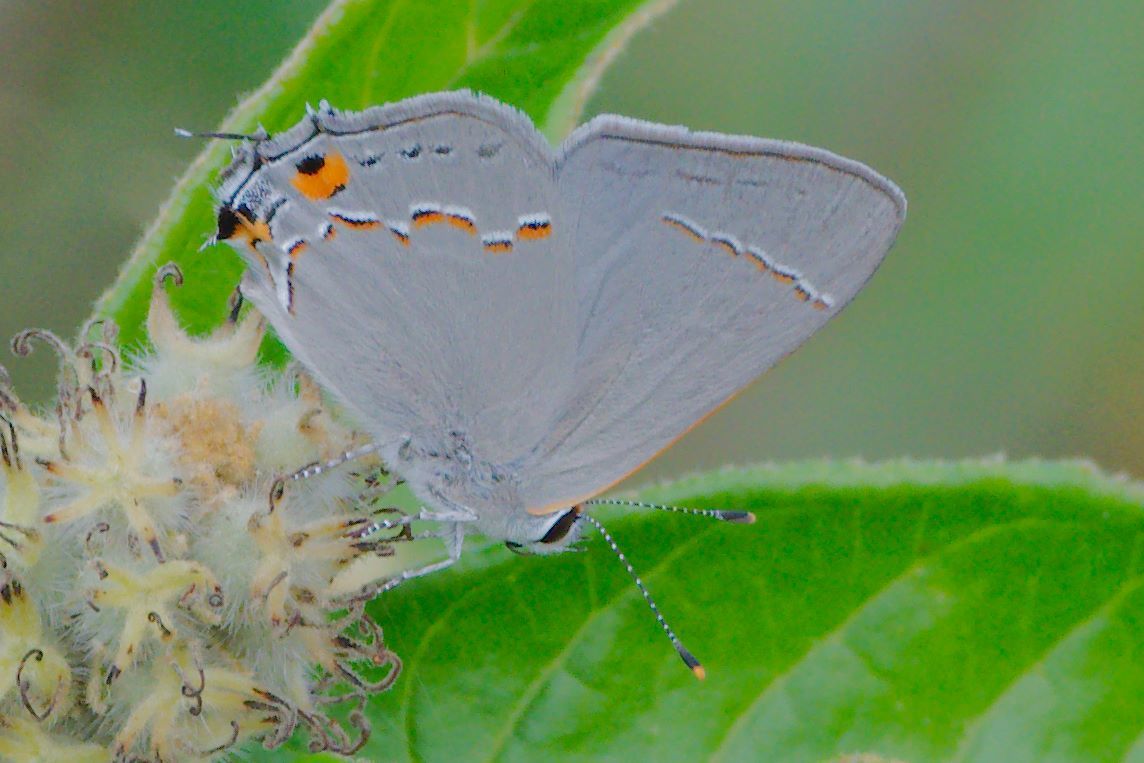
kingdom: Animalia
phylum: Arthropoda
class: Insecta
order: Lepidoptera
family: Lycaenidae
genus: Strymon
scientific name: Strymon melinus
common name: Gray hairstreak
